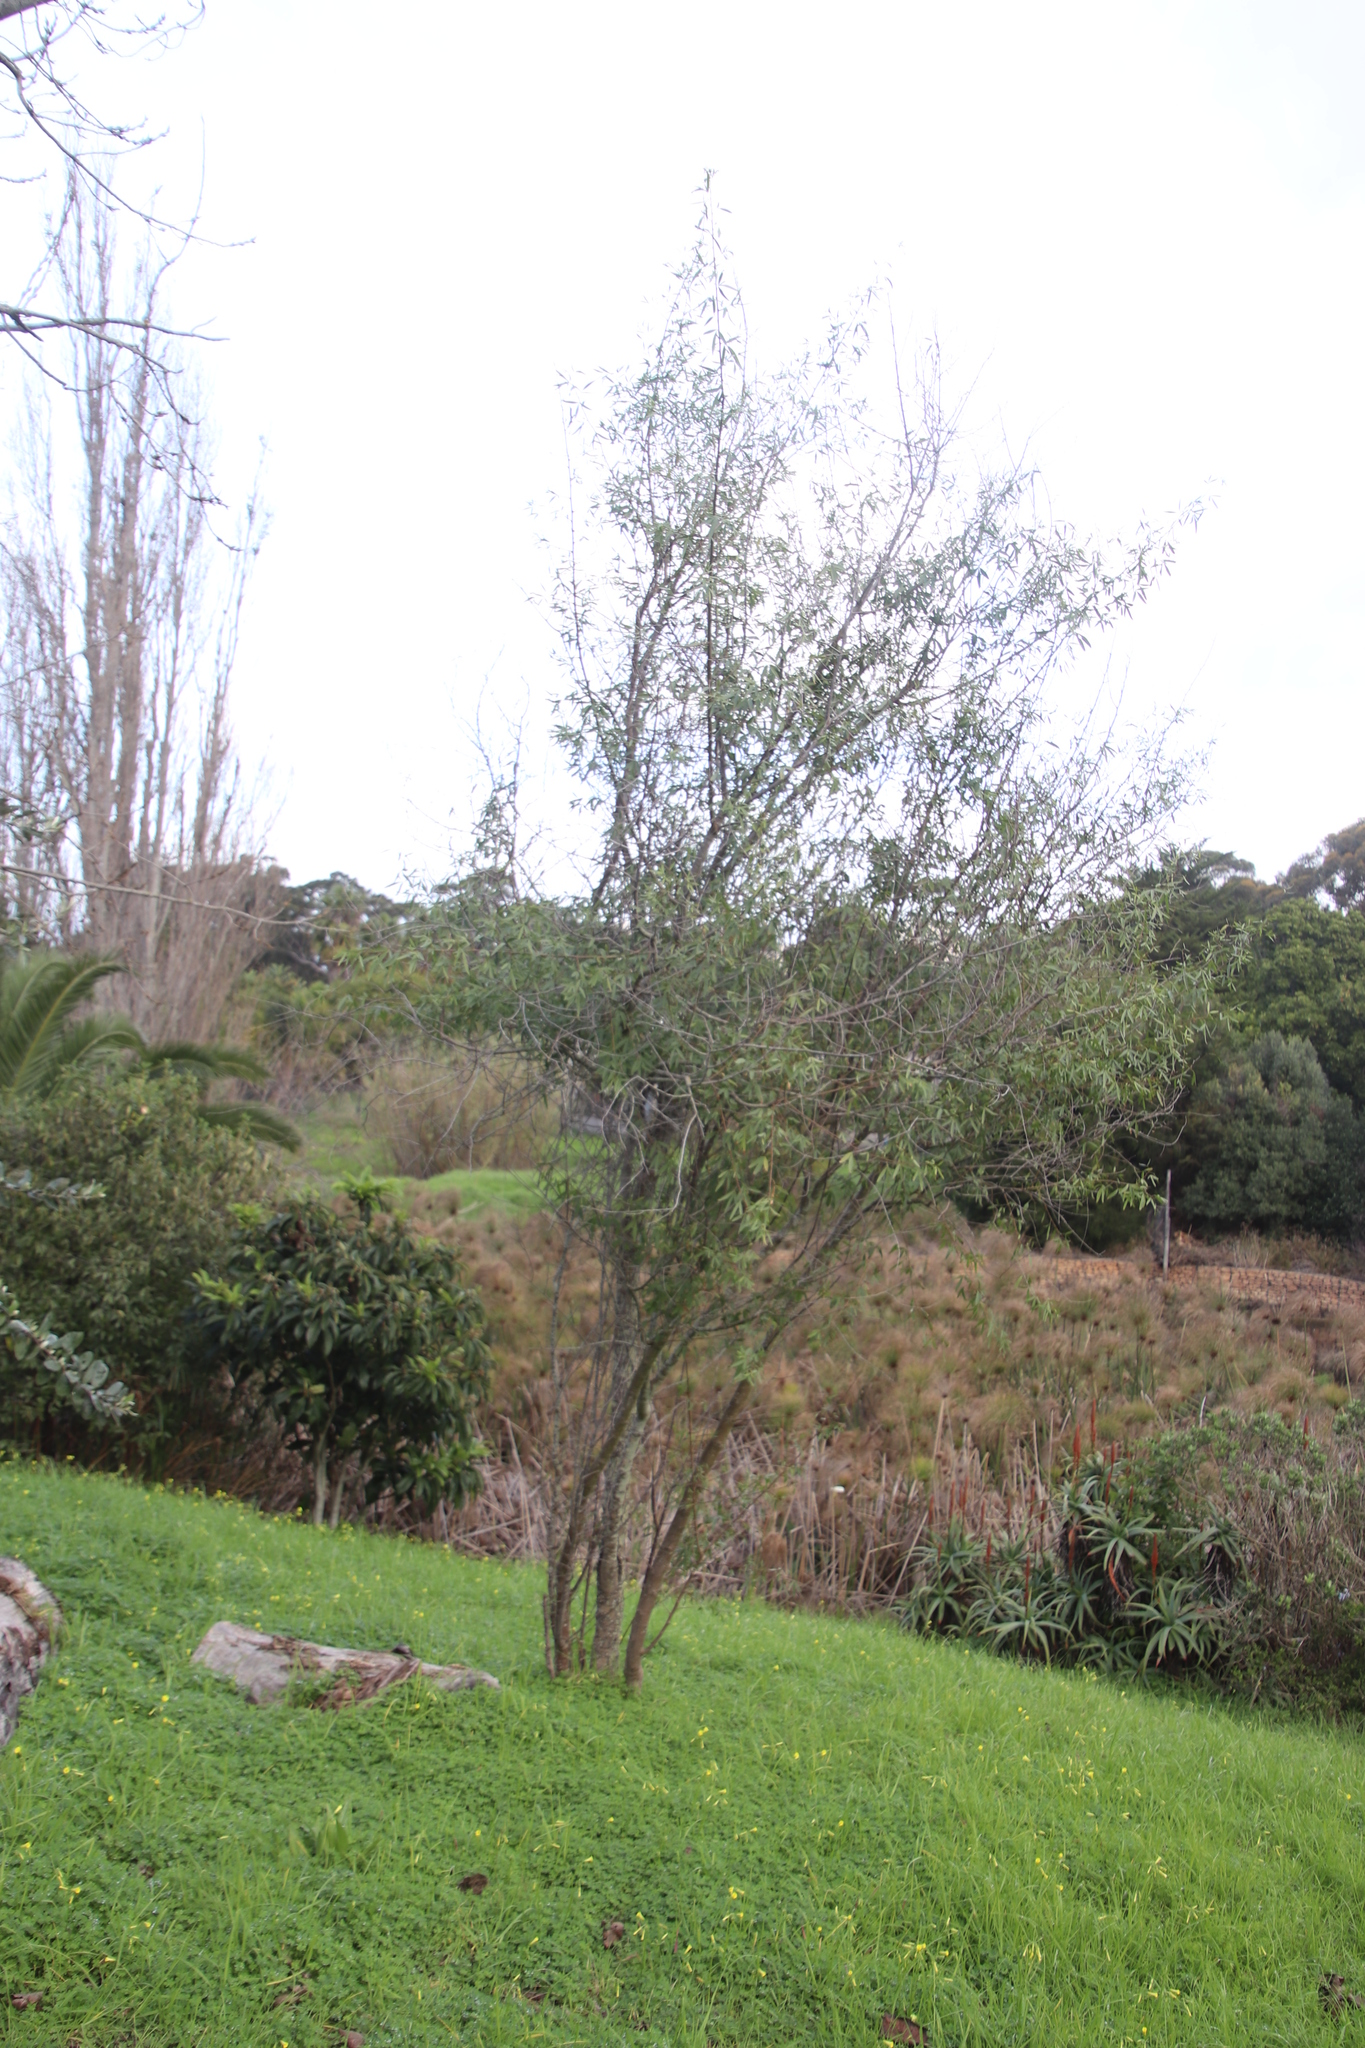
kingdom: Plantae
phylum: Tracheophyta
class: Magnoliopsida
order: Sapindales
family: Anacardiaceae
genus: Searsia
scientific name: Searsia pendulina
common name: White karee
